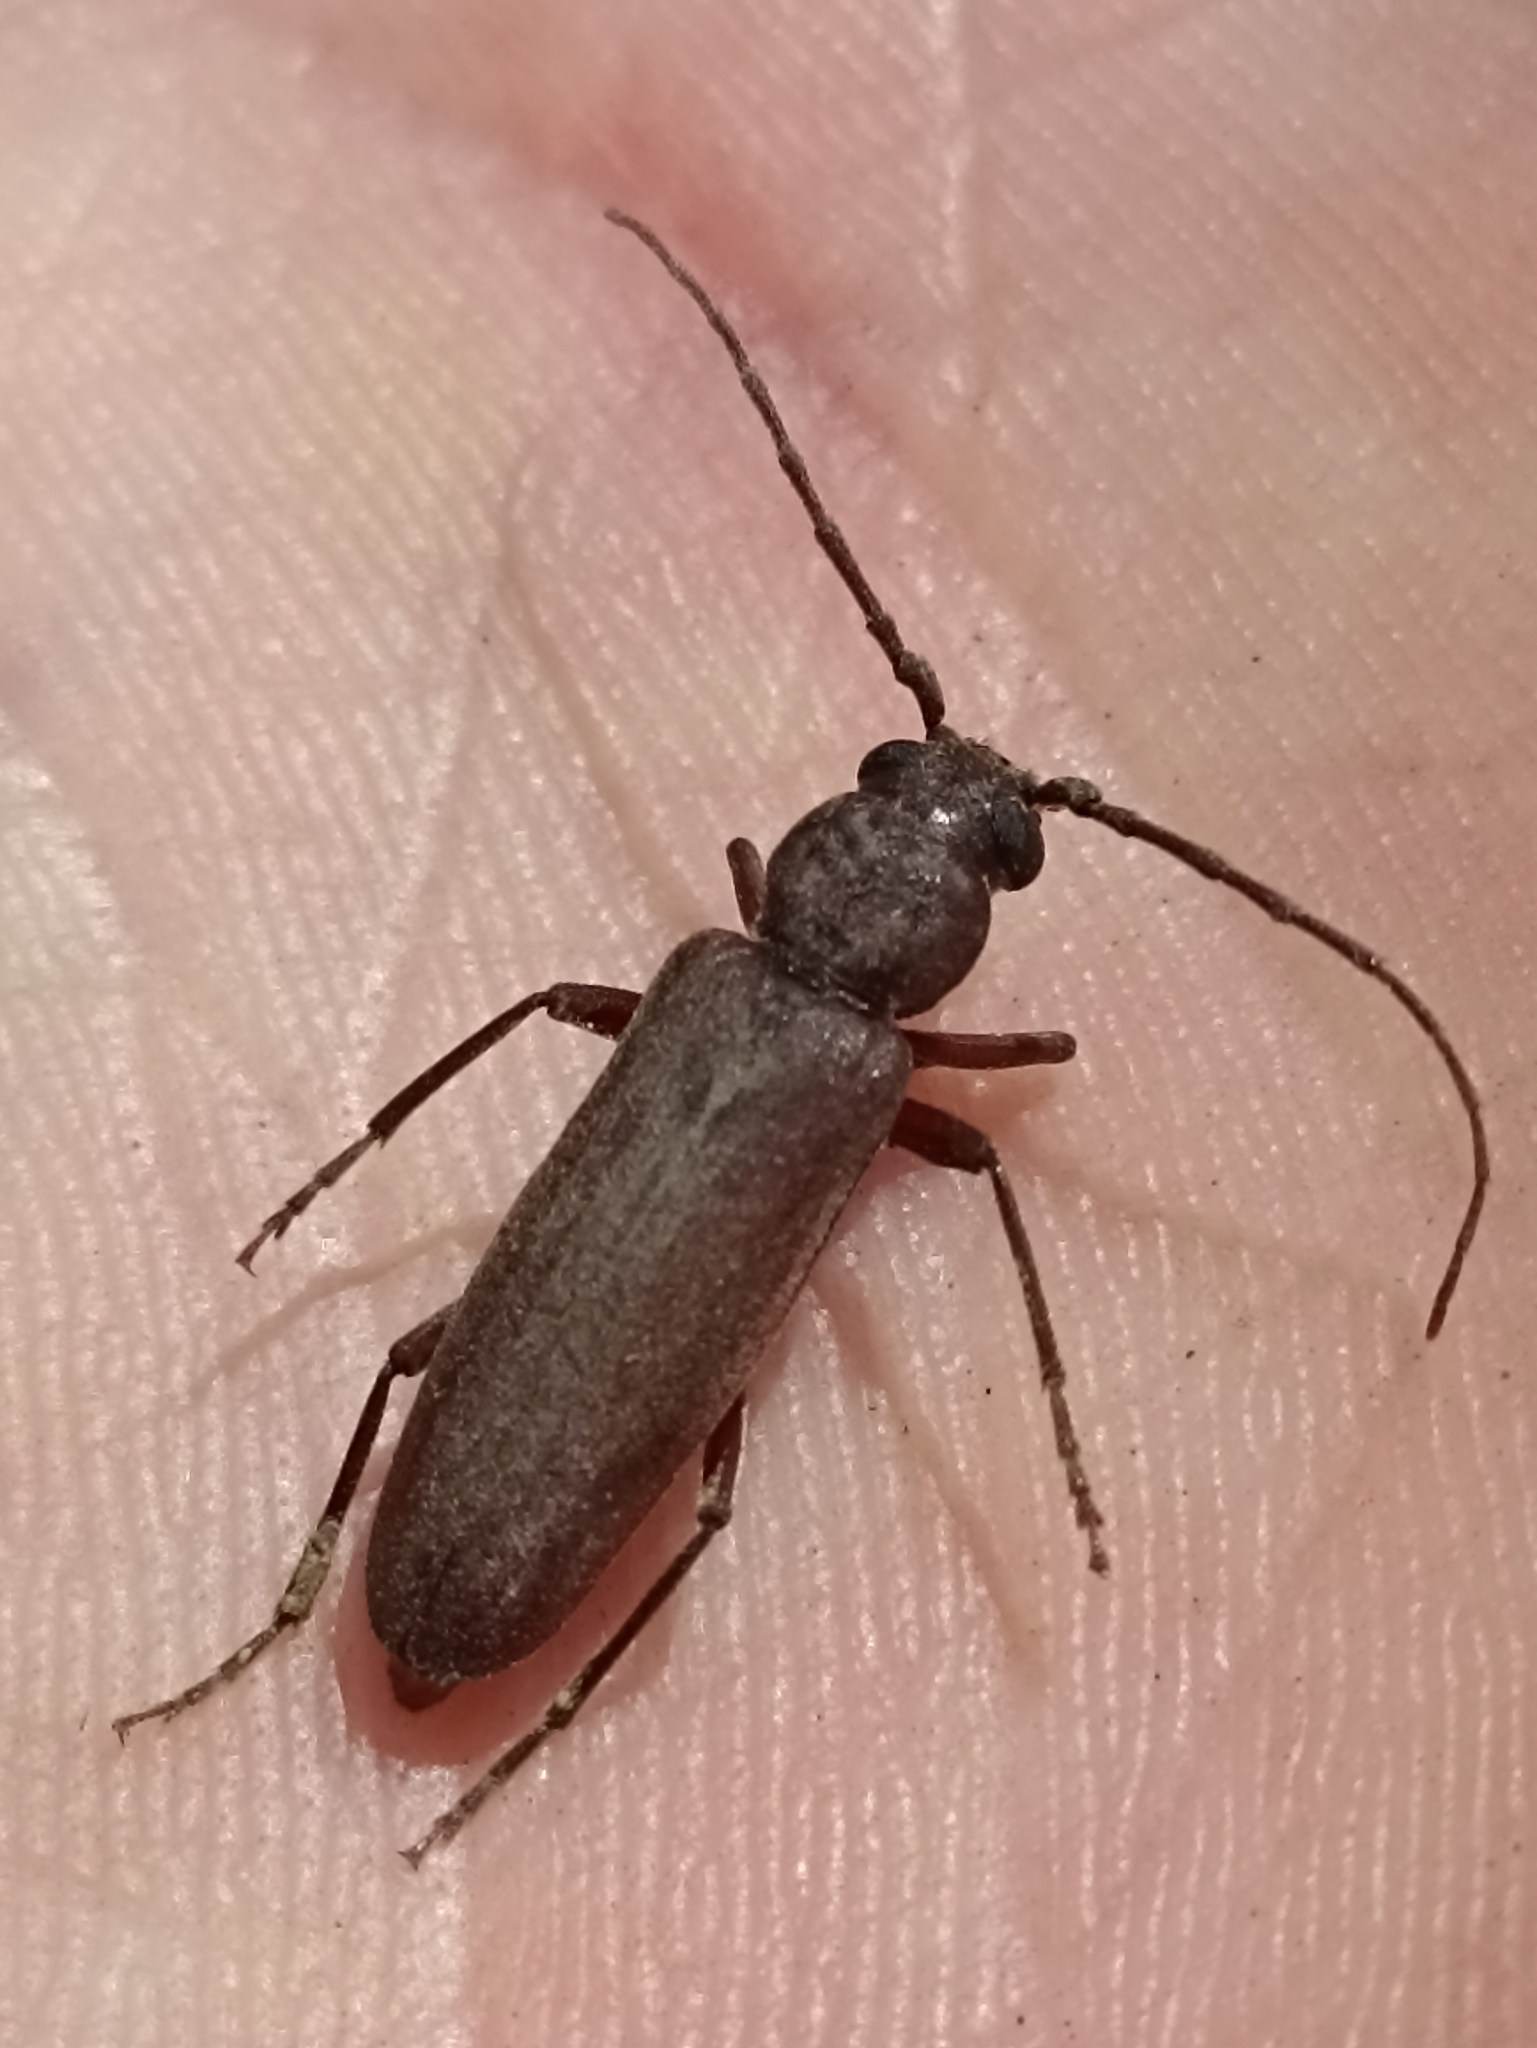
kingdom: Animalia
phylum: Arthropoda
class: Insecta
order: Coleoptera
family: Cerambycidae
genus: Arhopalus
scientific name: Arhopalus ferus
